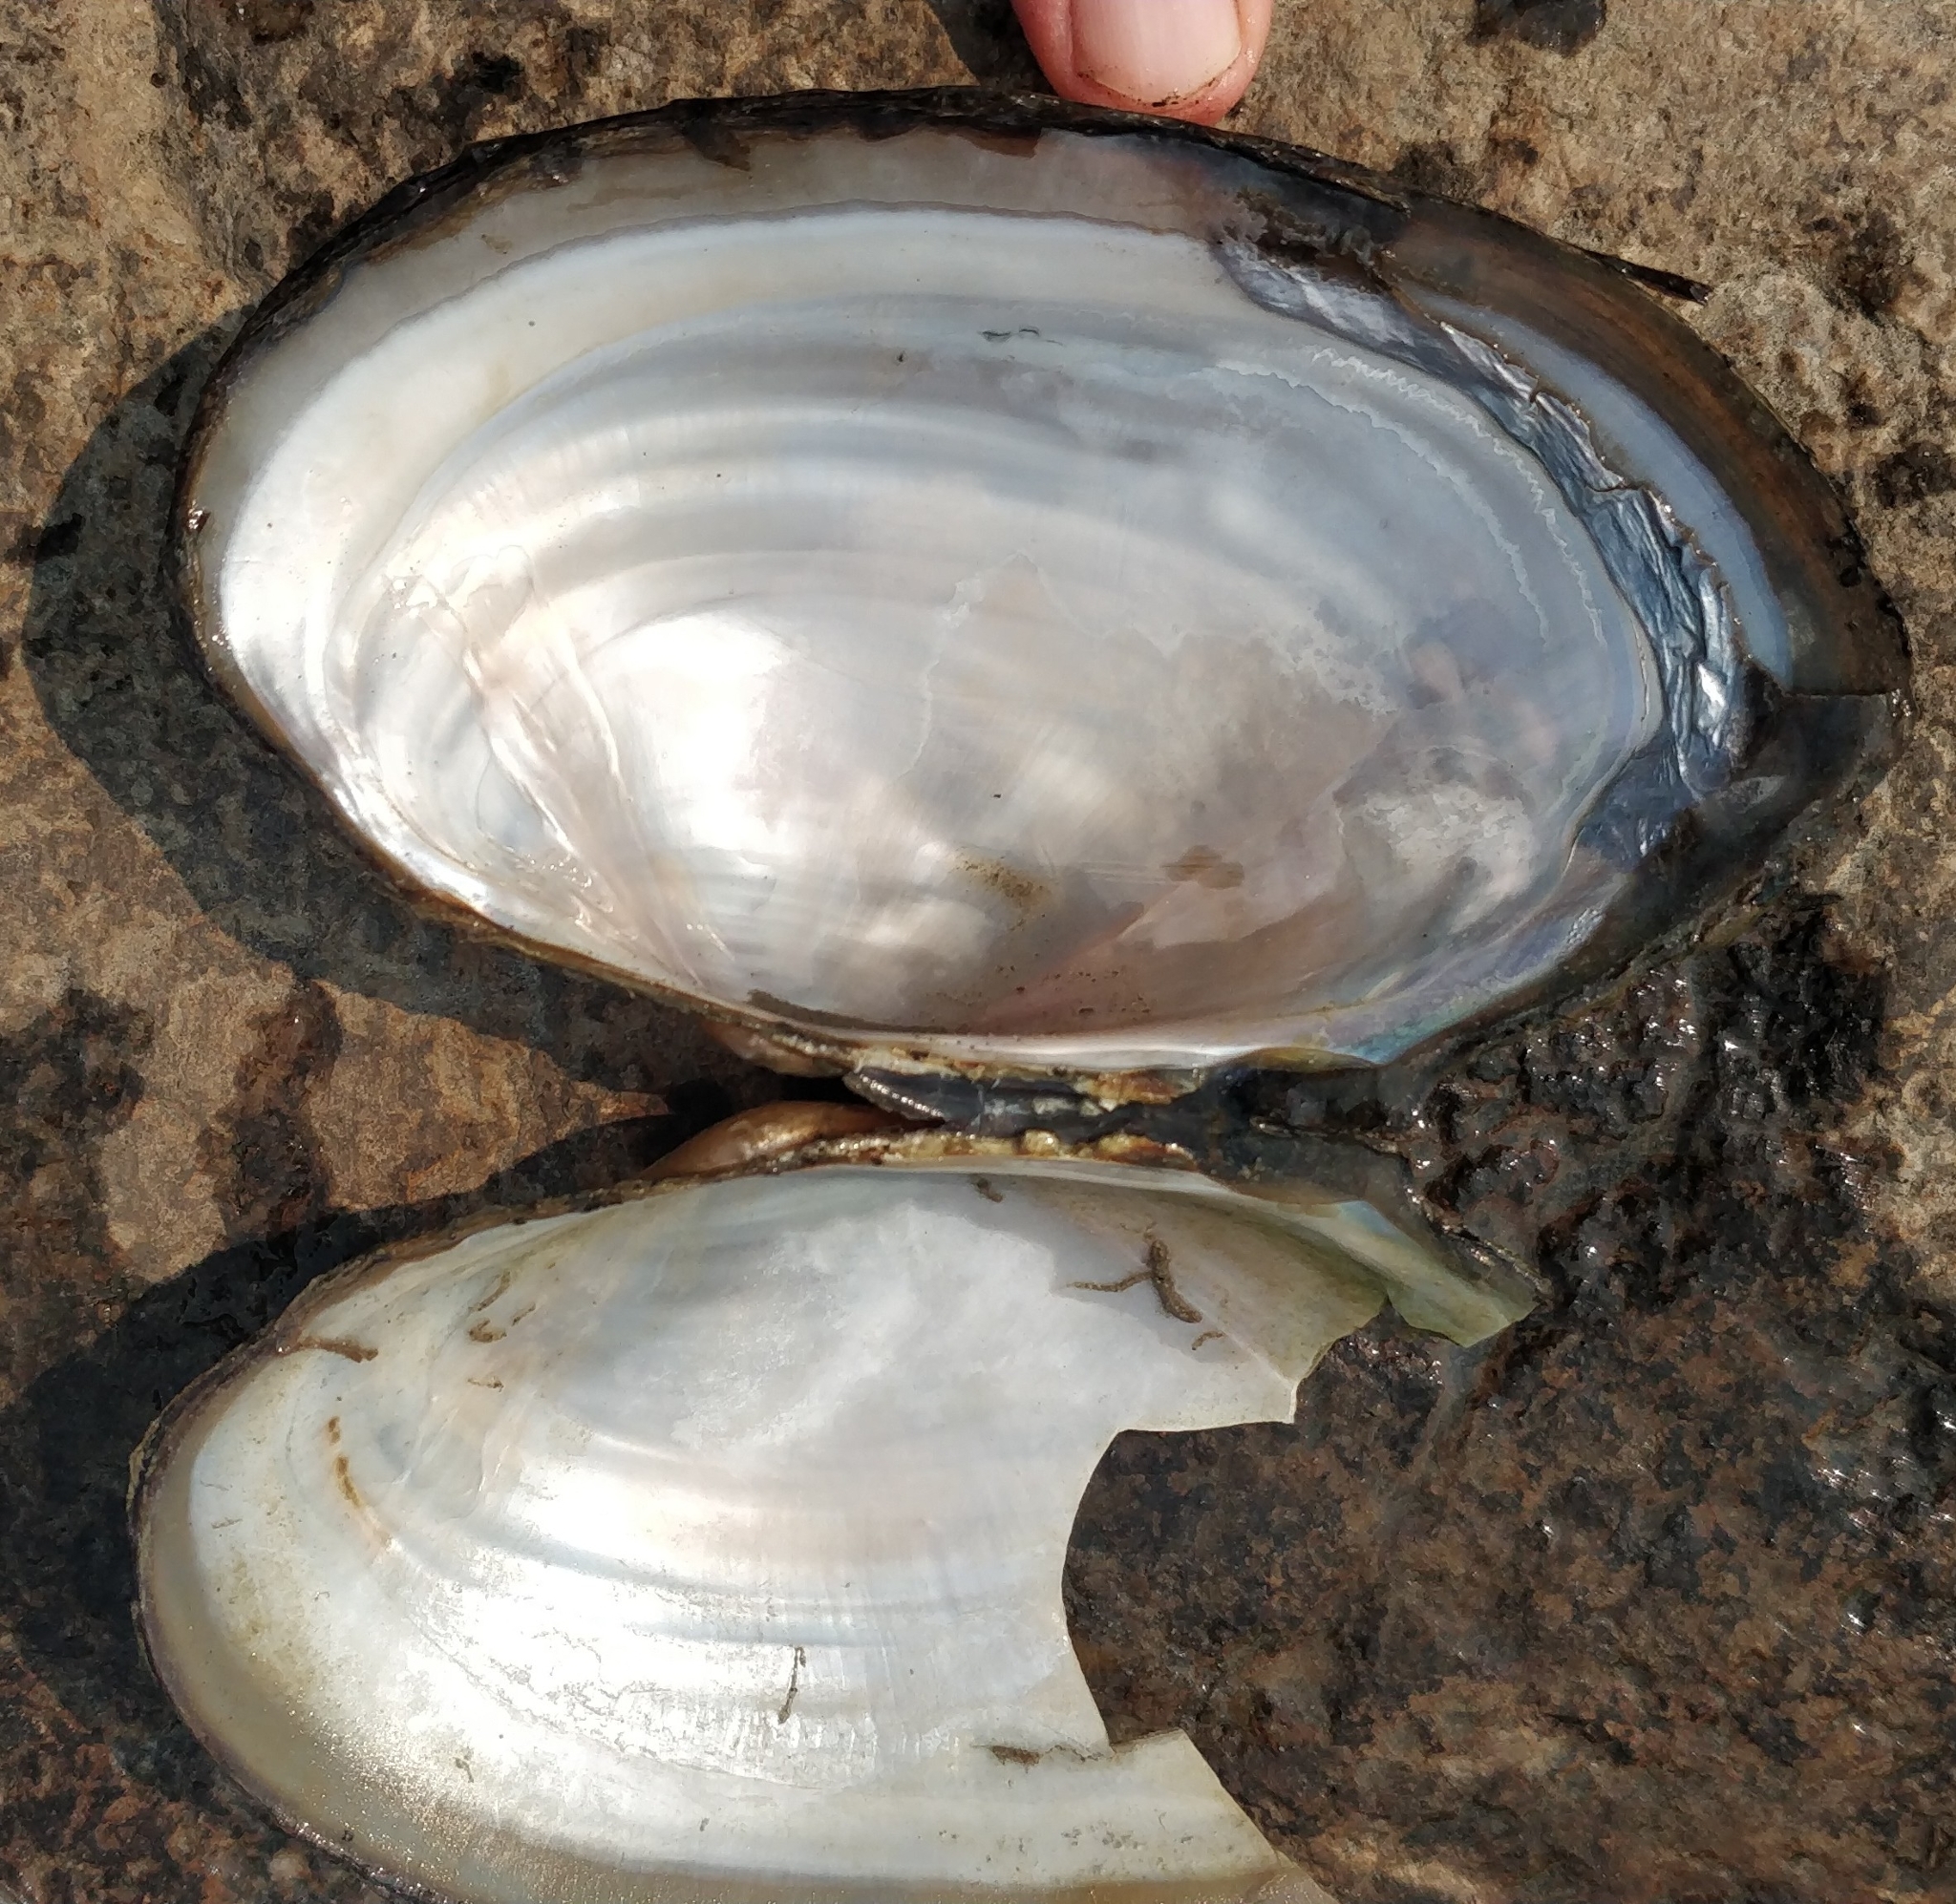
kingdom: Animalia
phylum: Mollusca
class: Bivalvia
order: Unionida
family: Unionidae
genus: Pyganodon
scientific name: Pyganodon grandis
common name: Giant floater
